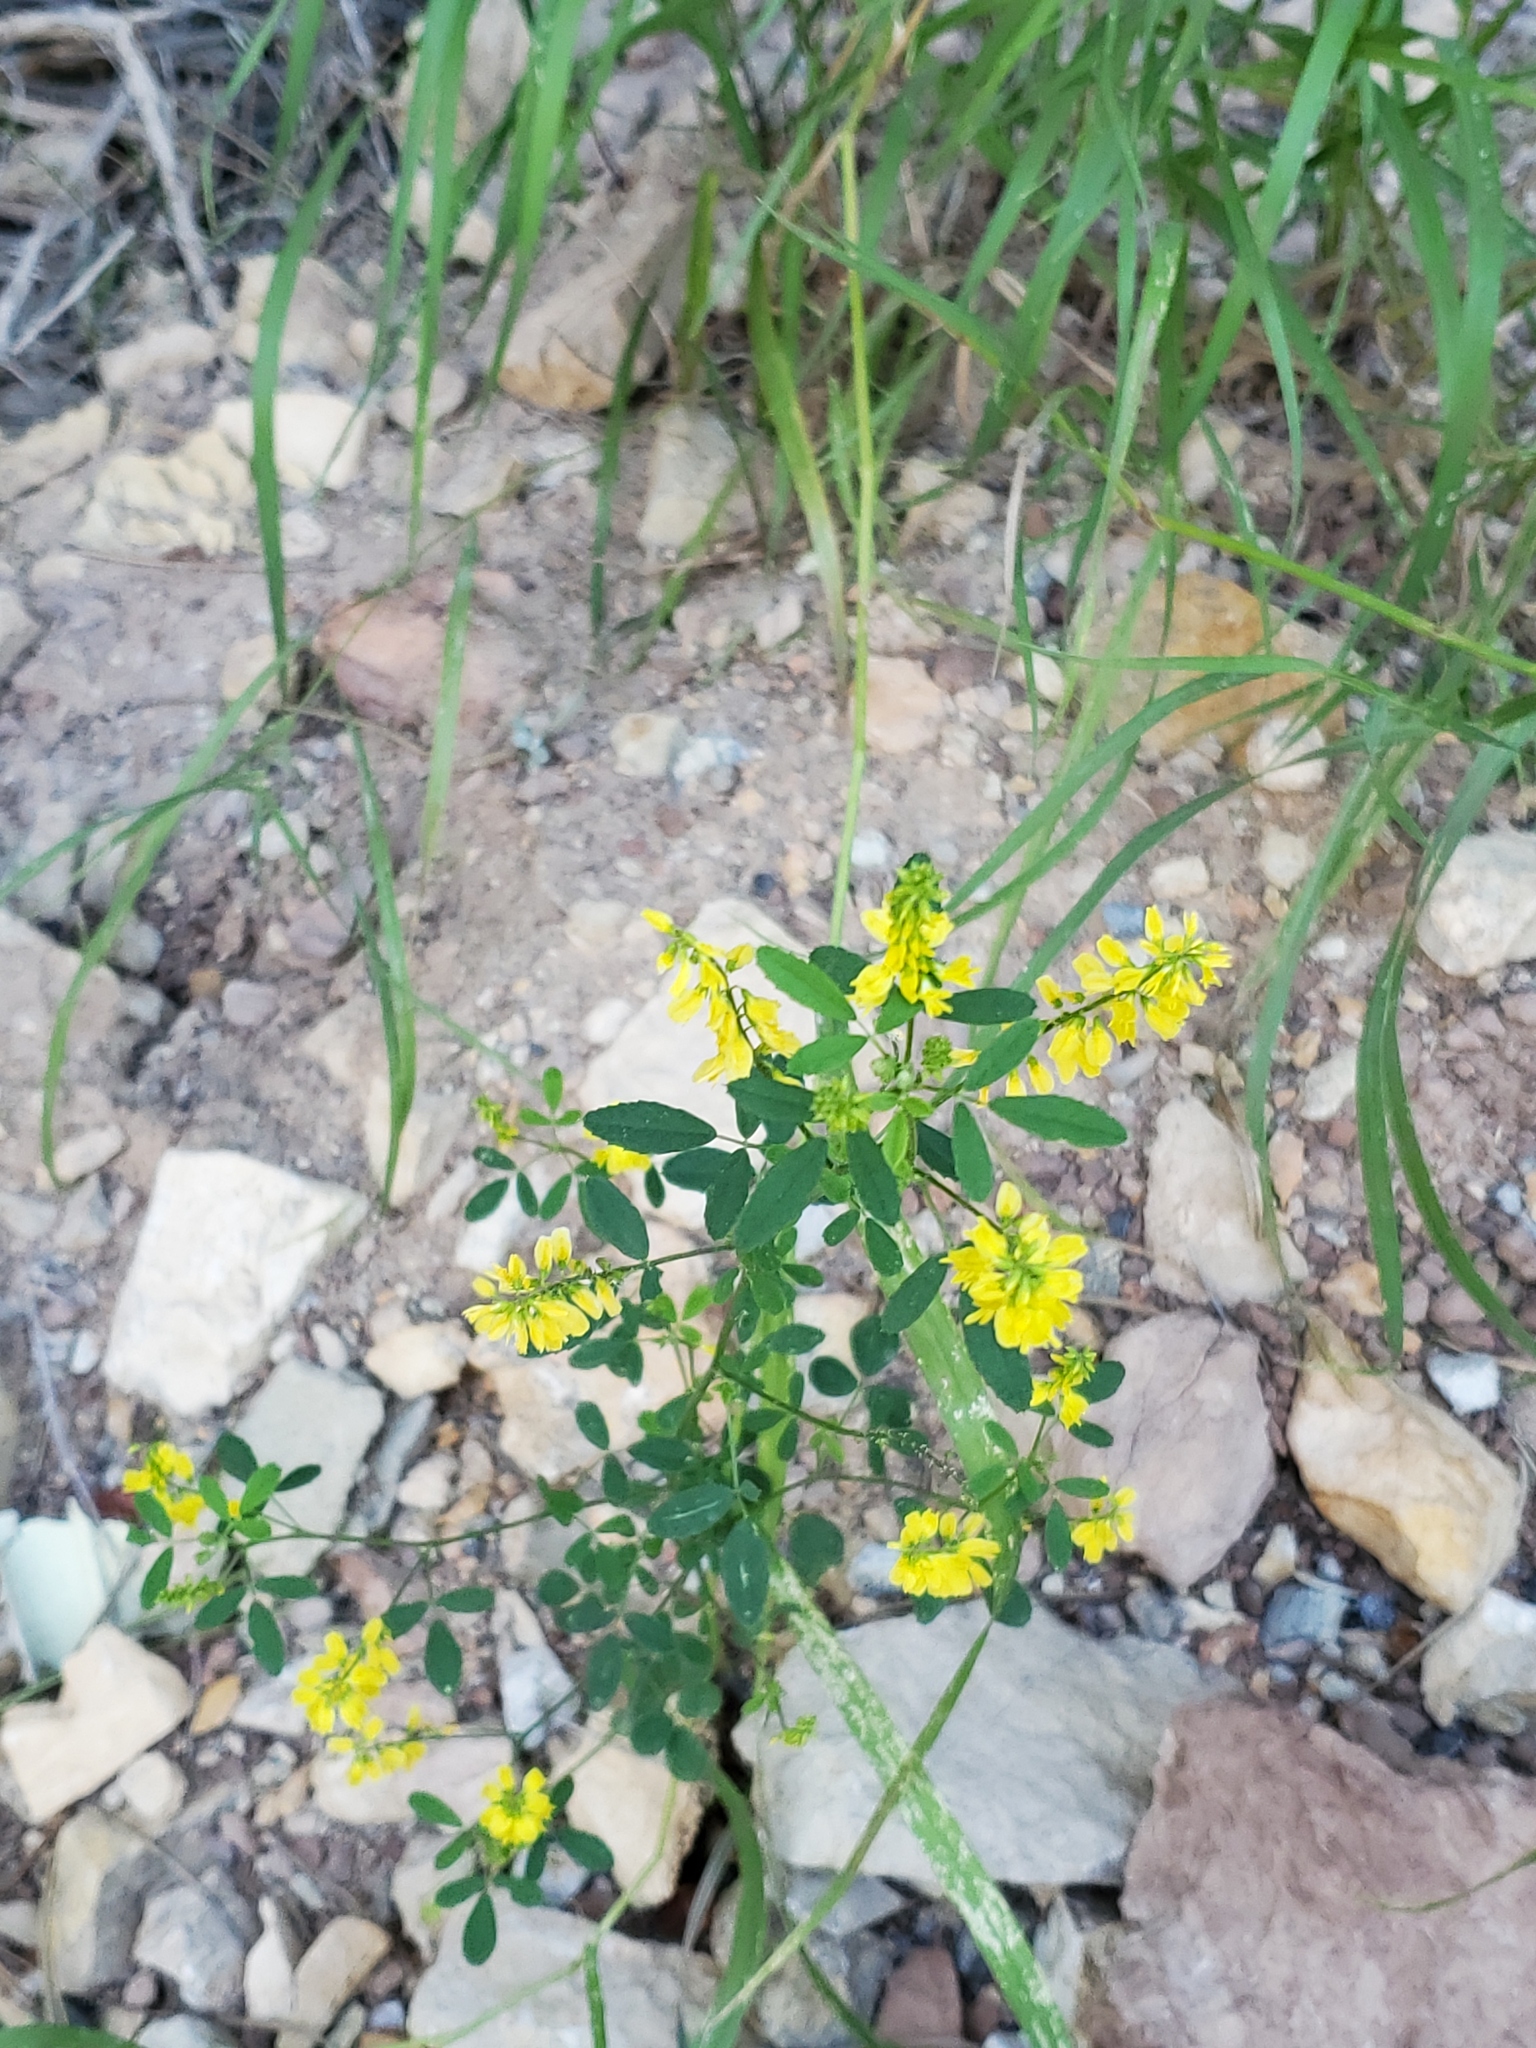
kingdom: Plantae
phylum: Tracheophyta
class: Magnoliopsida
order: Fabales
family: Fabaceae
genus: Melilotus
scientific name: Melilotus officinalis
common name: Sweetclover
